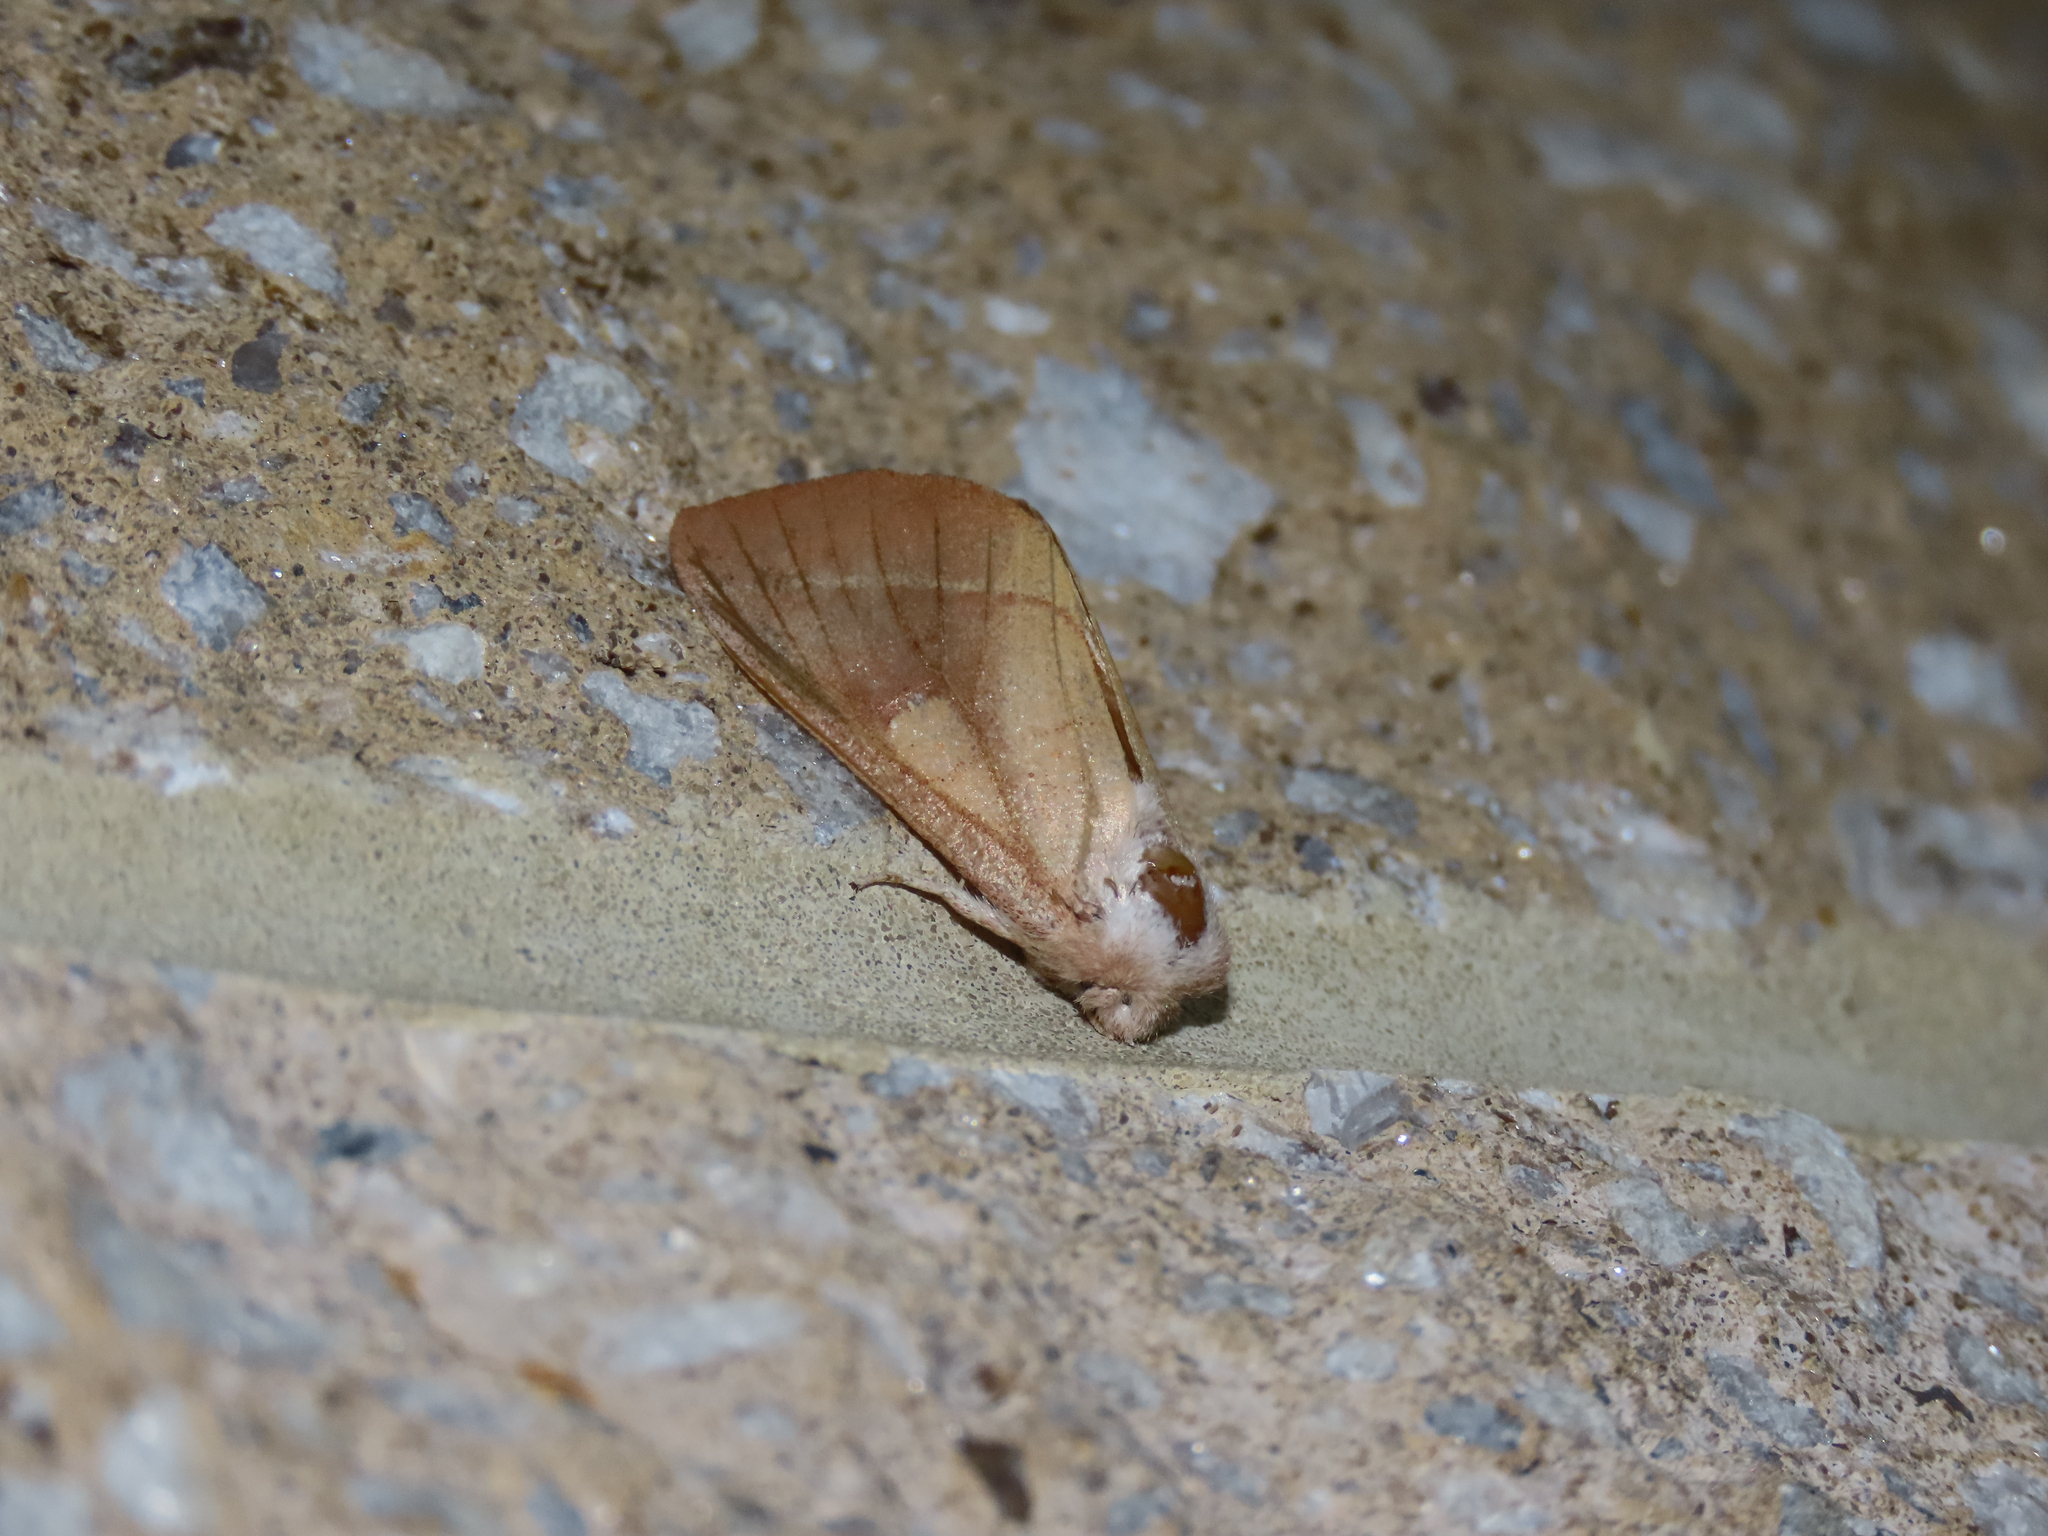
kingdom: Animalia
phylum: Arthropoda
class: Insecta
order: Lepidoptera
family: Notodontidae
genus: Nadata
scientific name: Nadata gibbosa
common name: White-dotted prominent
